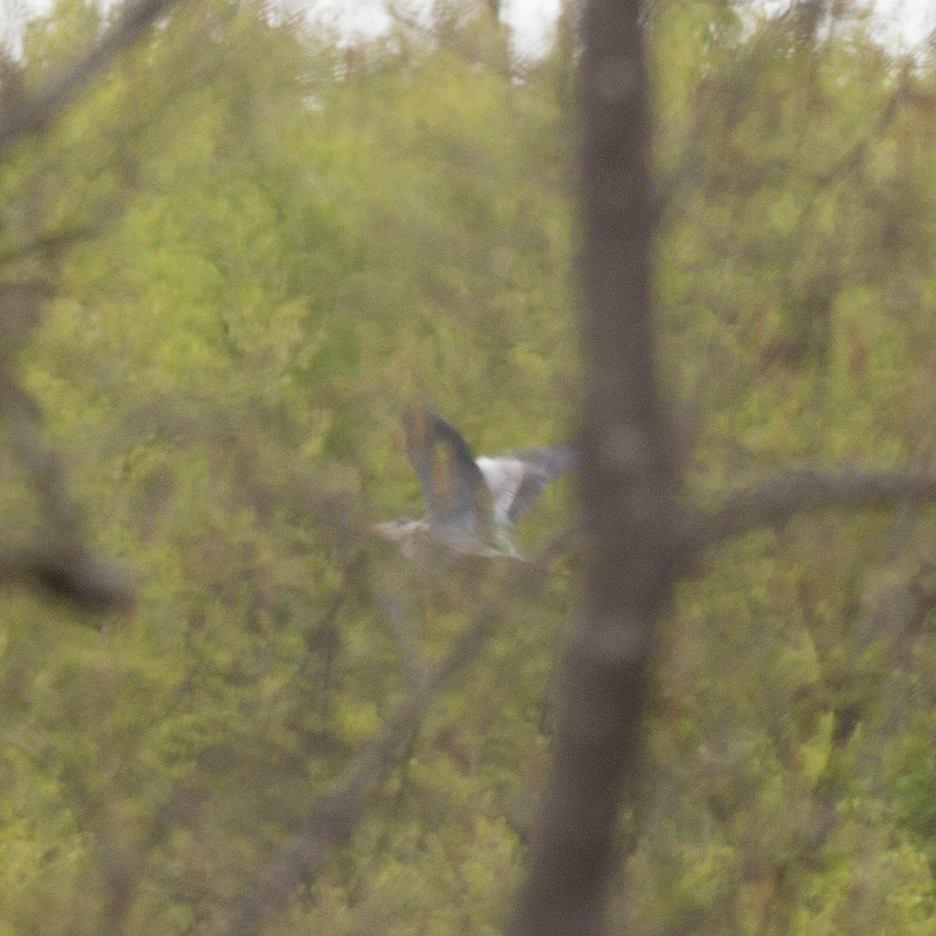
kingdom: Animalia
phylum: Chordata
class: Aves
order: Pelecaniformes
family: Ardeidae
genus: Ardea
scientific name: Ardea cinerea
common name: Grey heron
